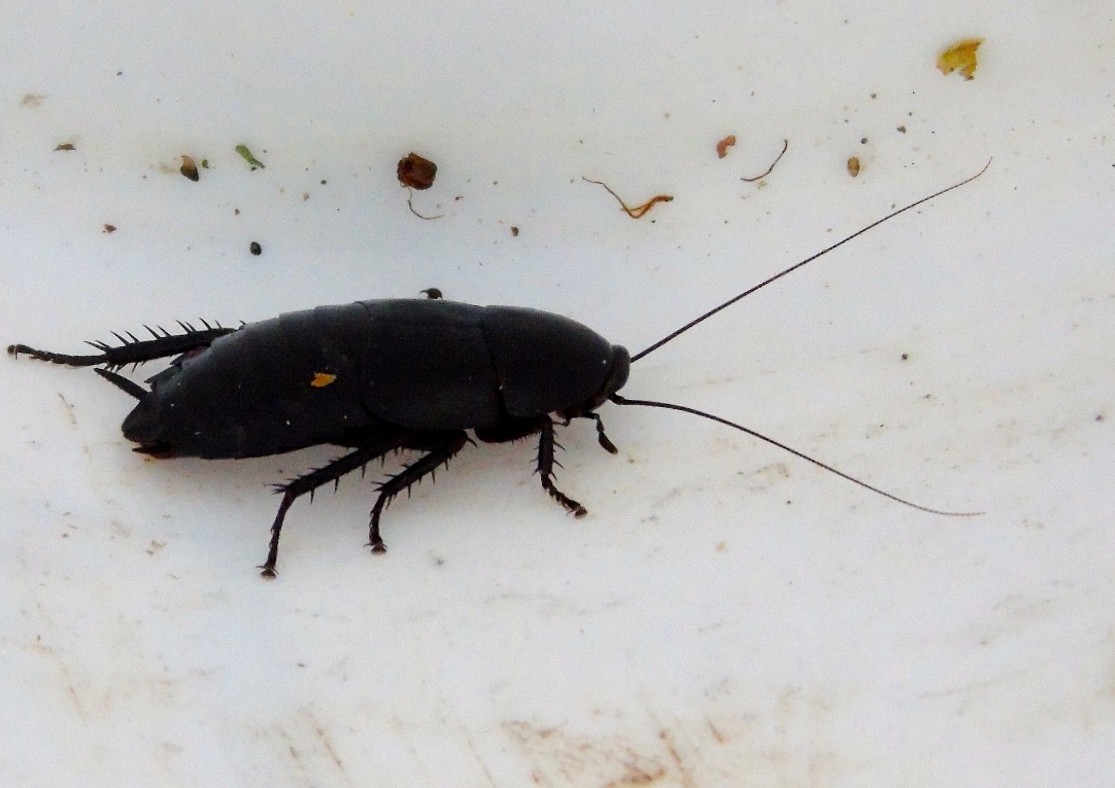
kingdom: Animalia
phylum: Arthropoda
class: Insecta
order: Blattodea
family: Ectobiidae
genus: Nyctibora
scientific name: Nyctibora tetrasticta
